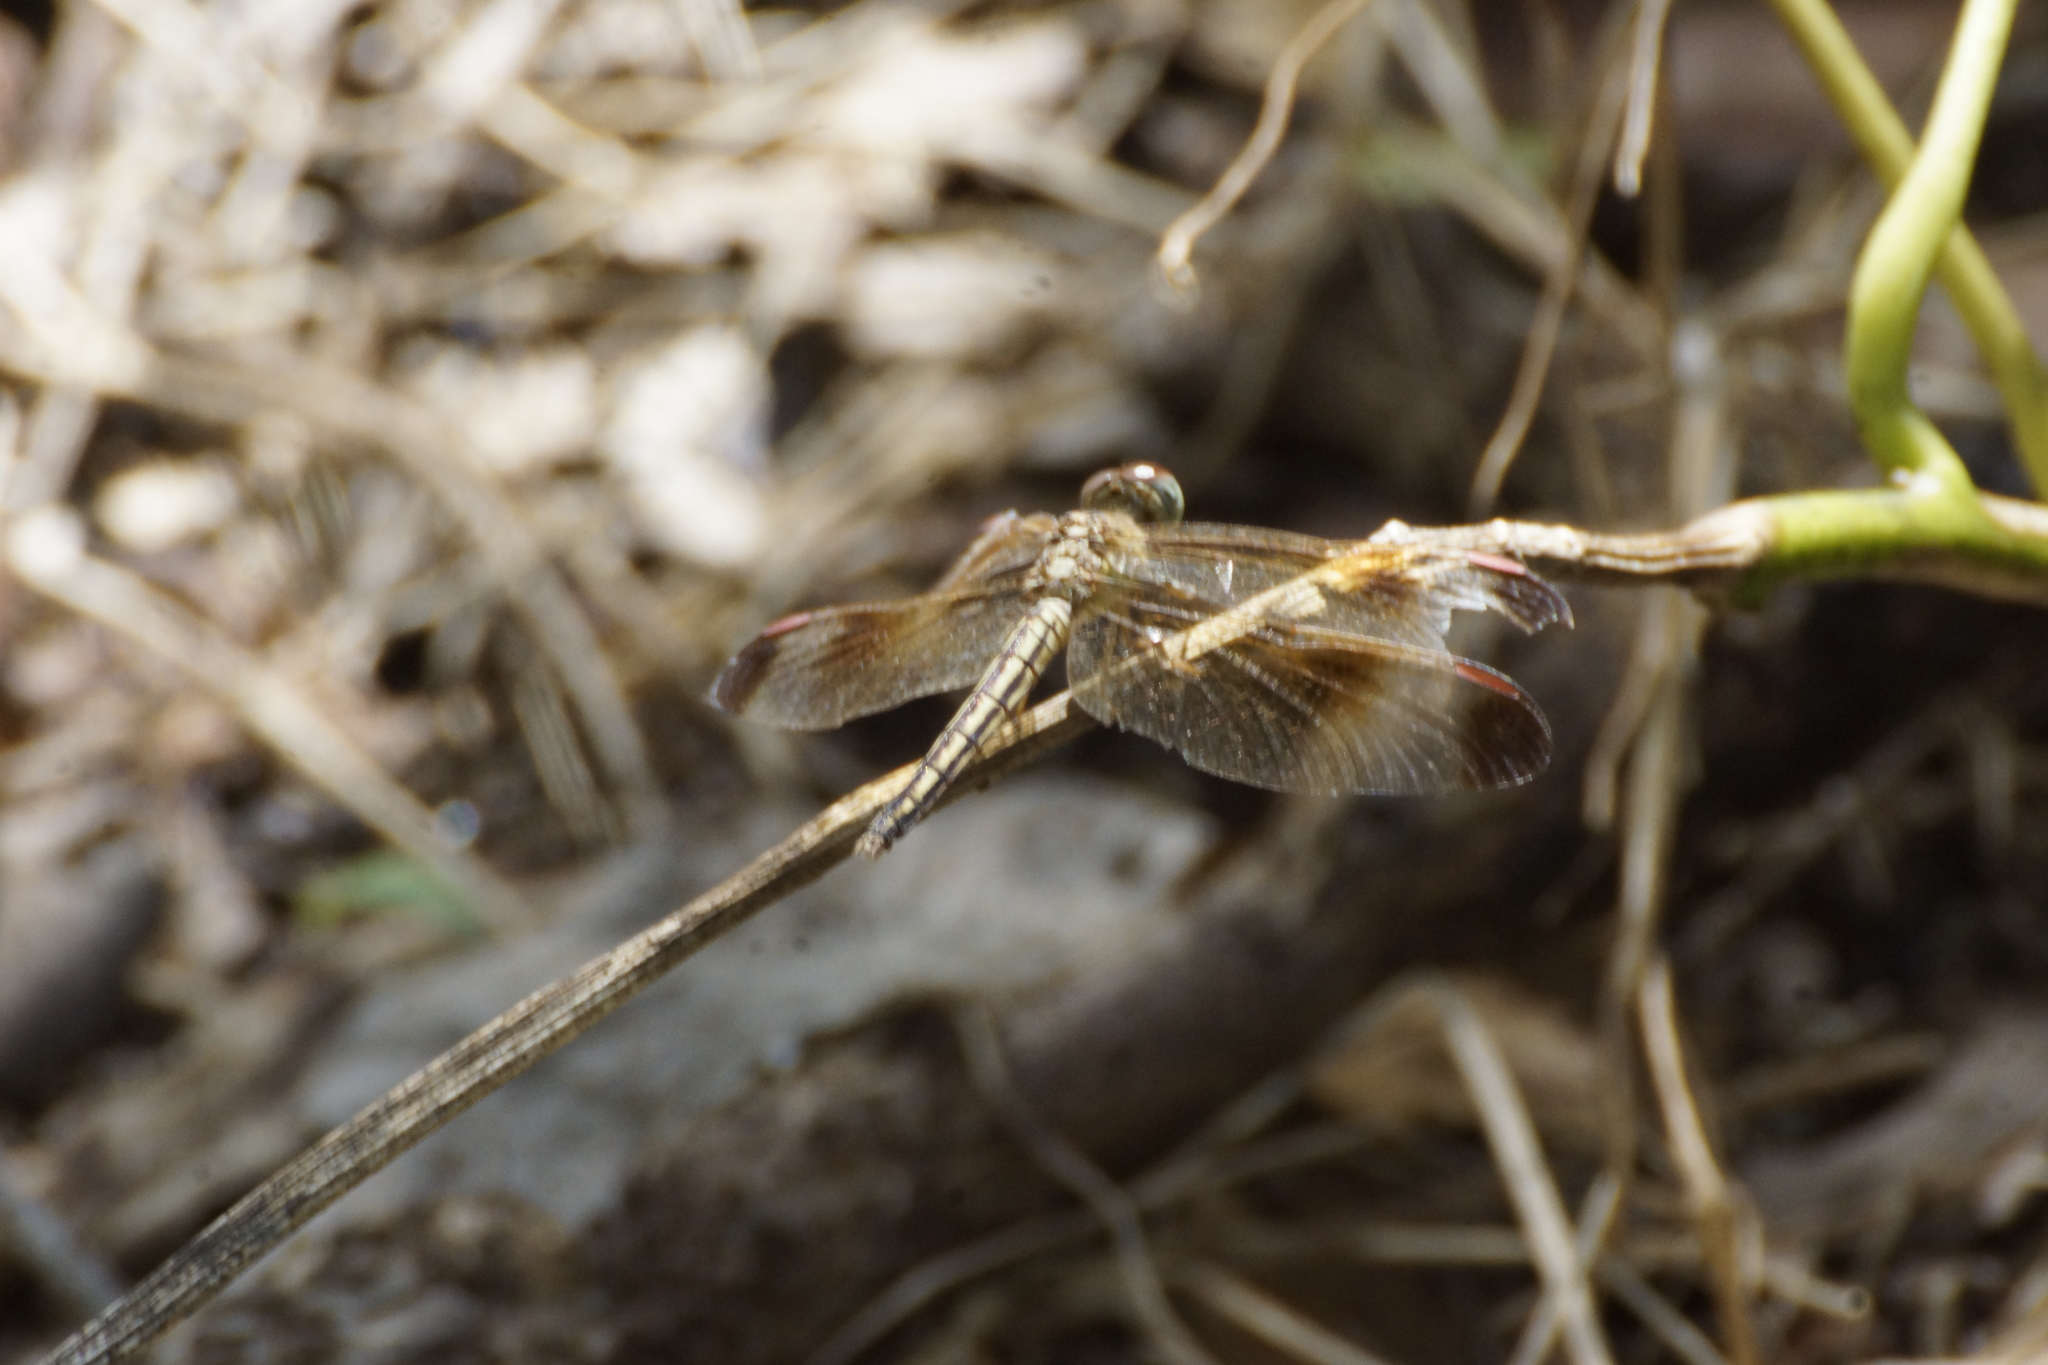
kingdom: Animalia
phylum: Arthropoda
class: Insecta
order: Odonata
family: Libellulidae
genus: Neurothemis
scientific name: Neurothemis stigmatizans
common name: Painted grasshawk
